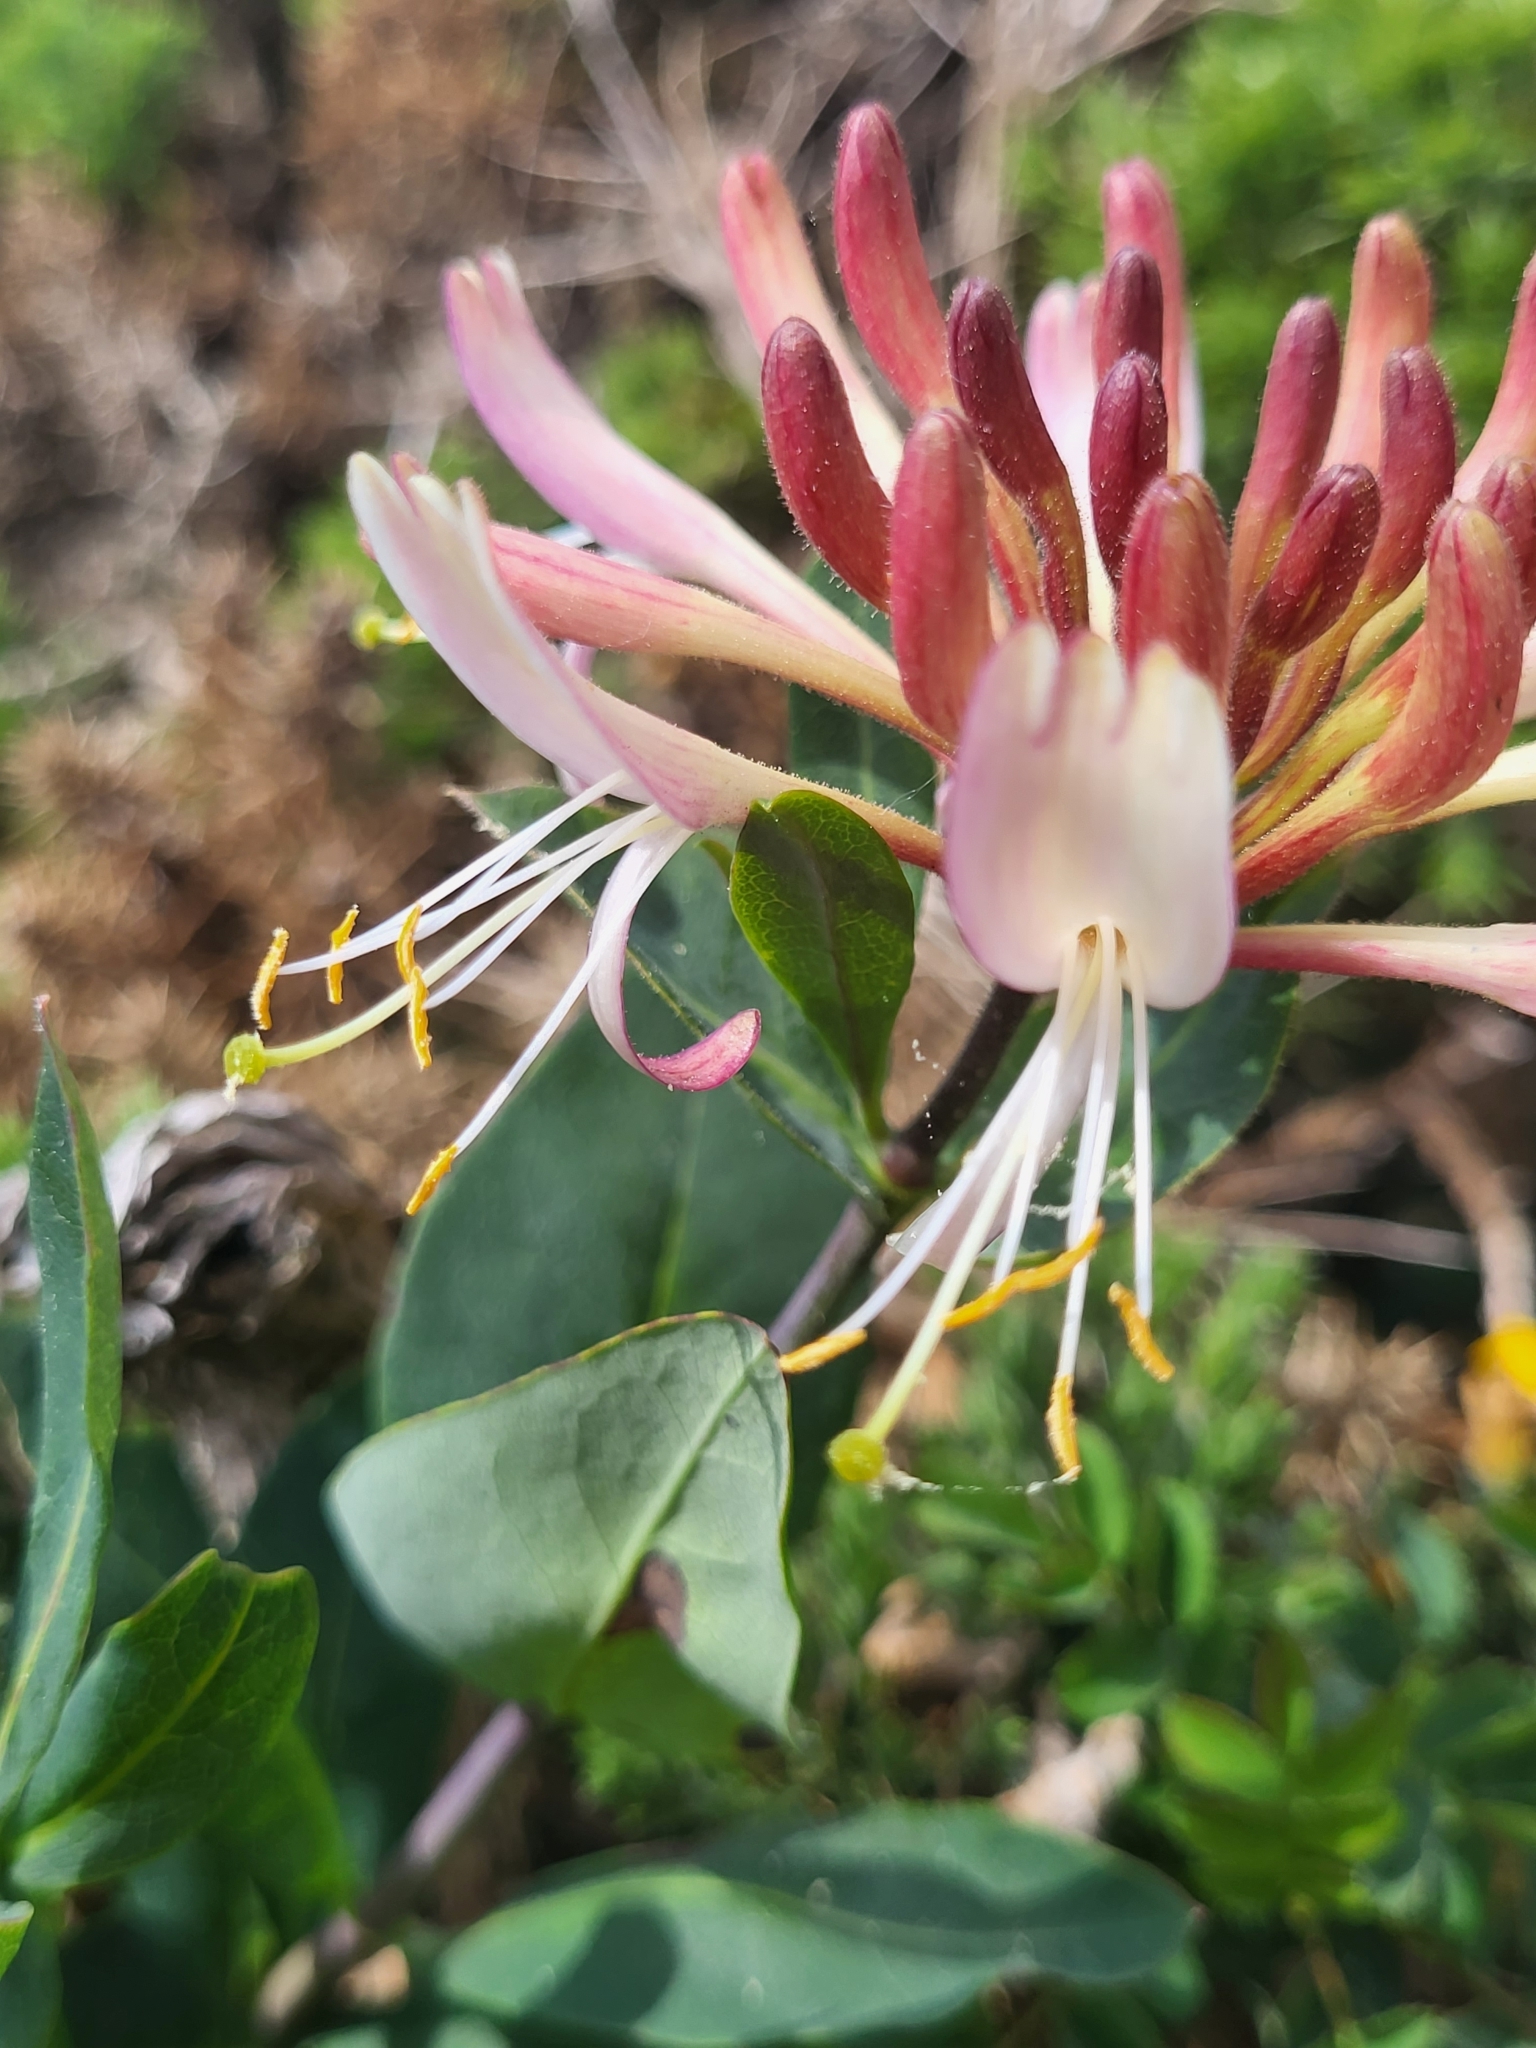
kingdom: Plantae
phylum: Tracheophyta
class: Magnoliopsida
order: Dipsacales
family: Caprifoliaceae
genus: Lonicera
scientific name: Lonicera periclymenum
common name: European honeysuckle
